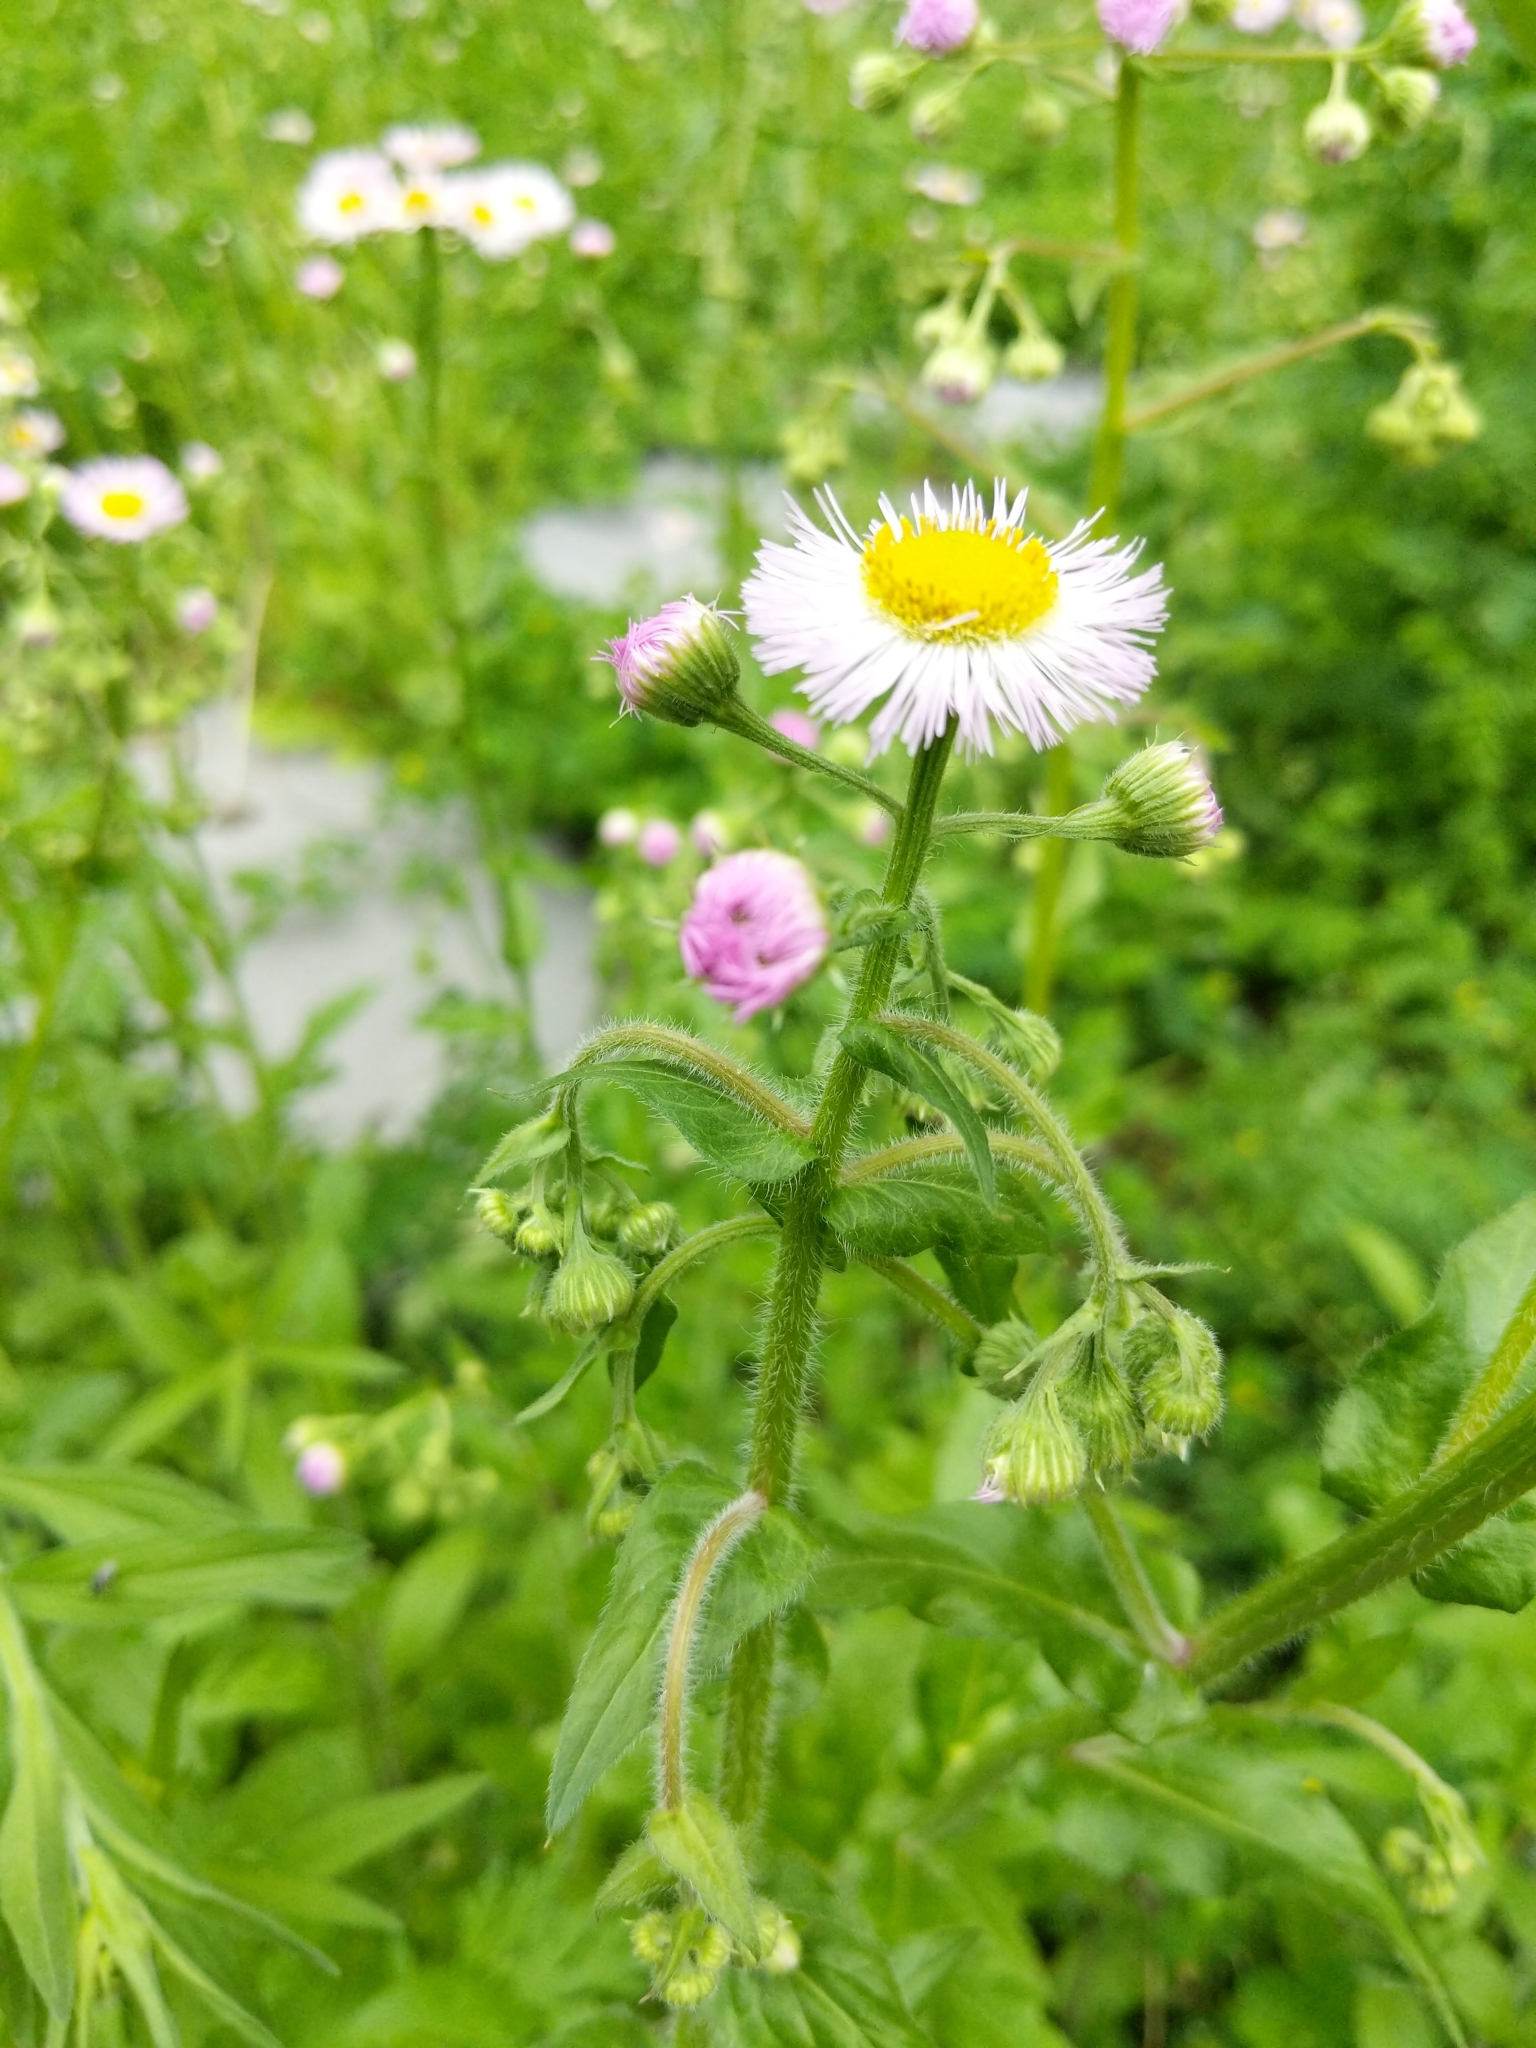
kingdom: Plantae
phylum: Tracheophyta
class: Magnoliopsida
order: Asterales
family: Asteraceae
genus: Erigeron
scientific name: Erigeron philadelphicus
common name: Robin's-plantain
